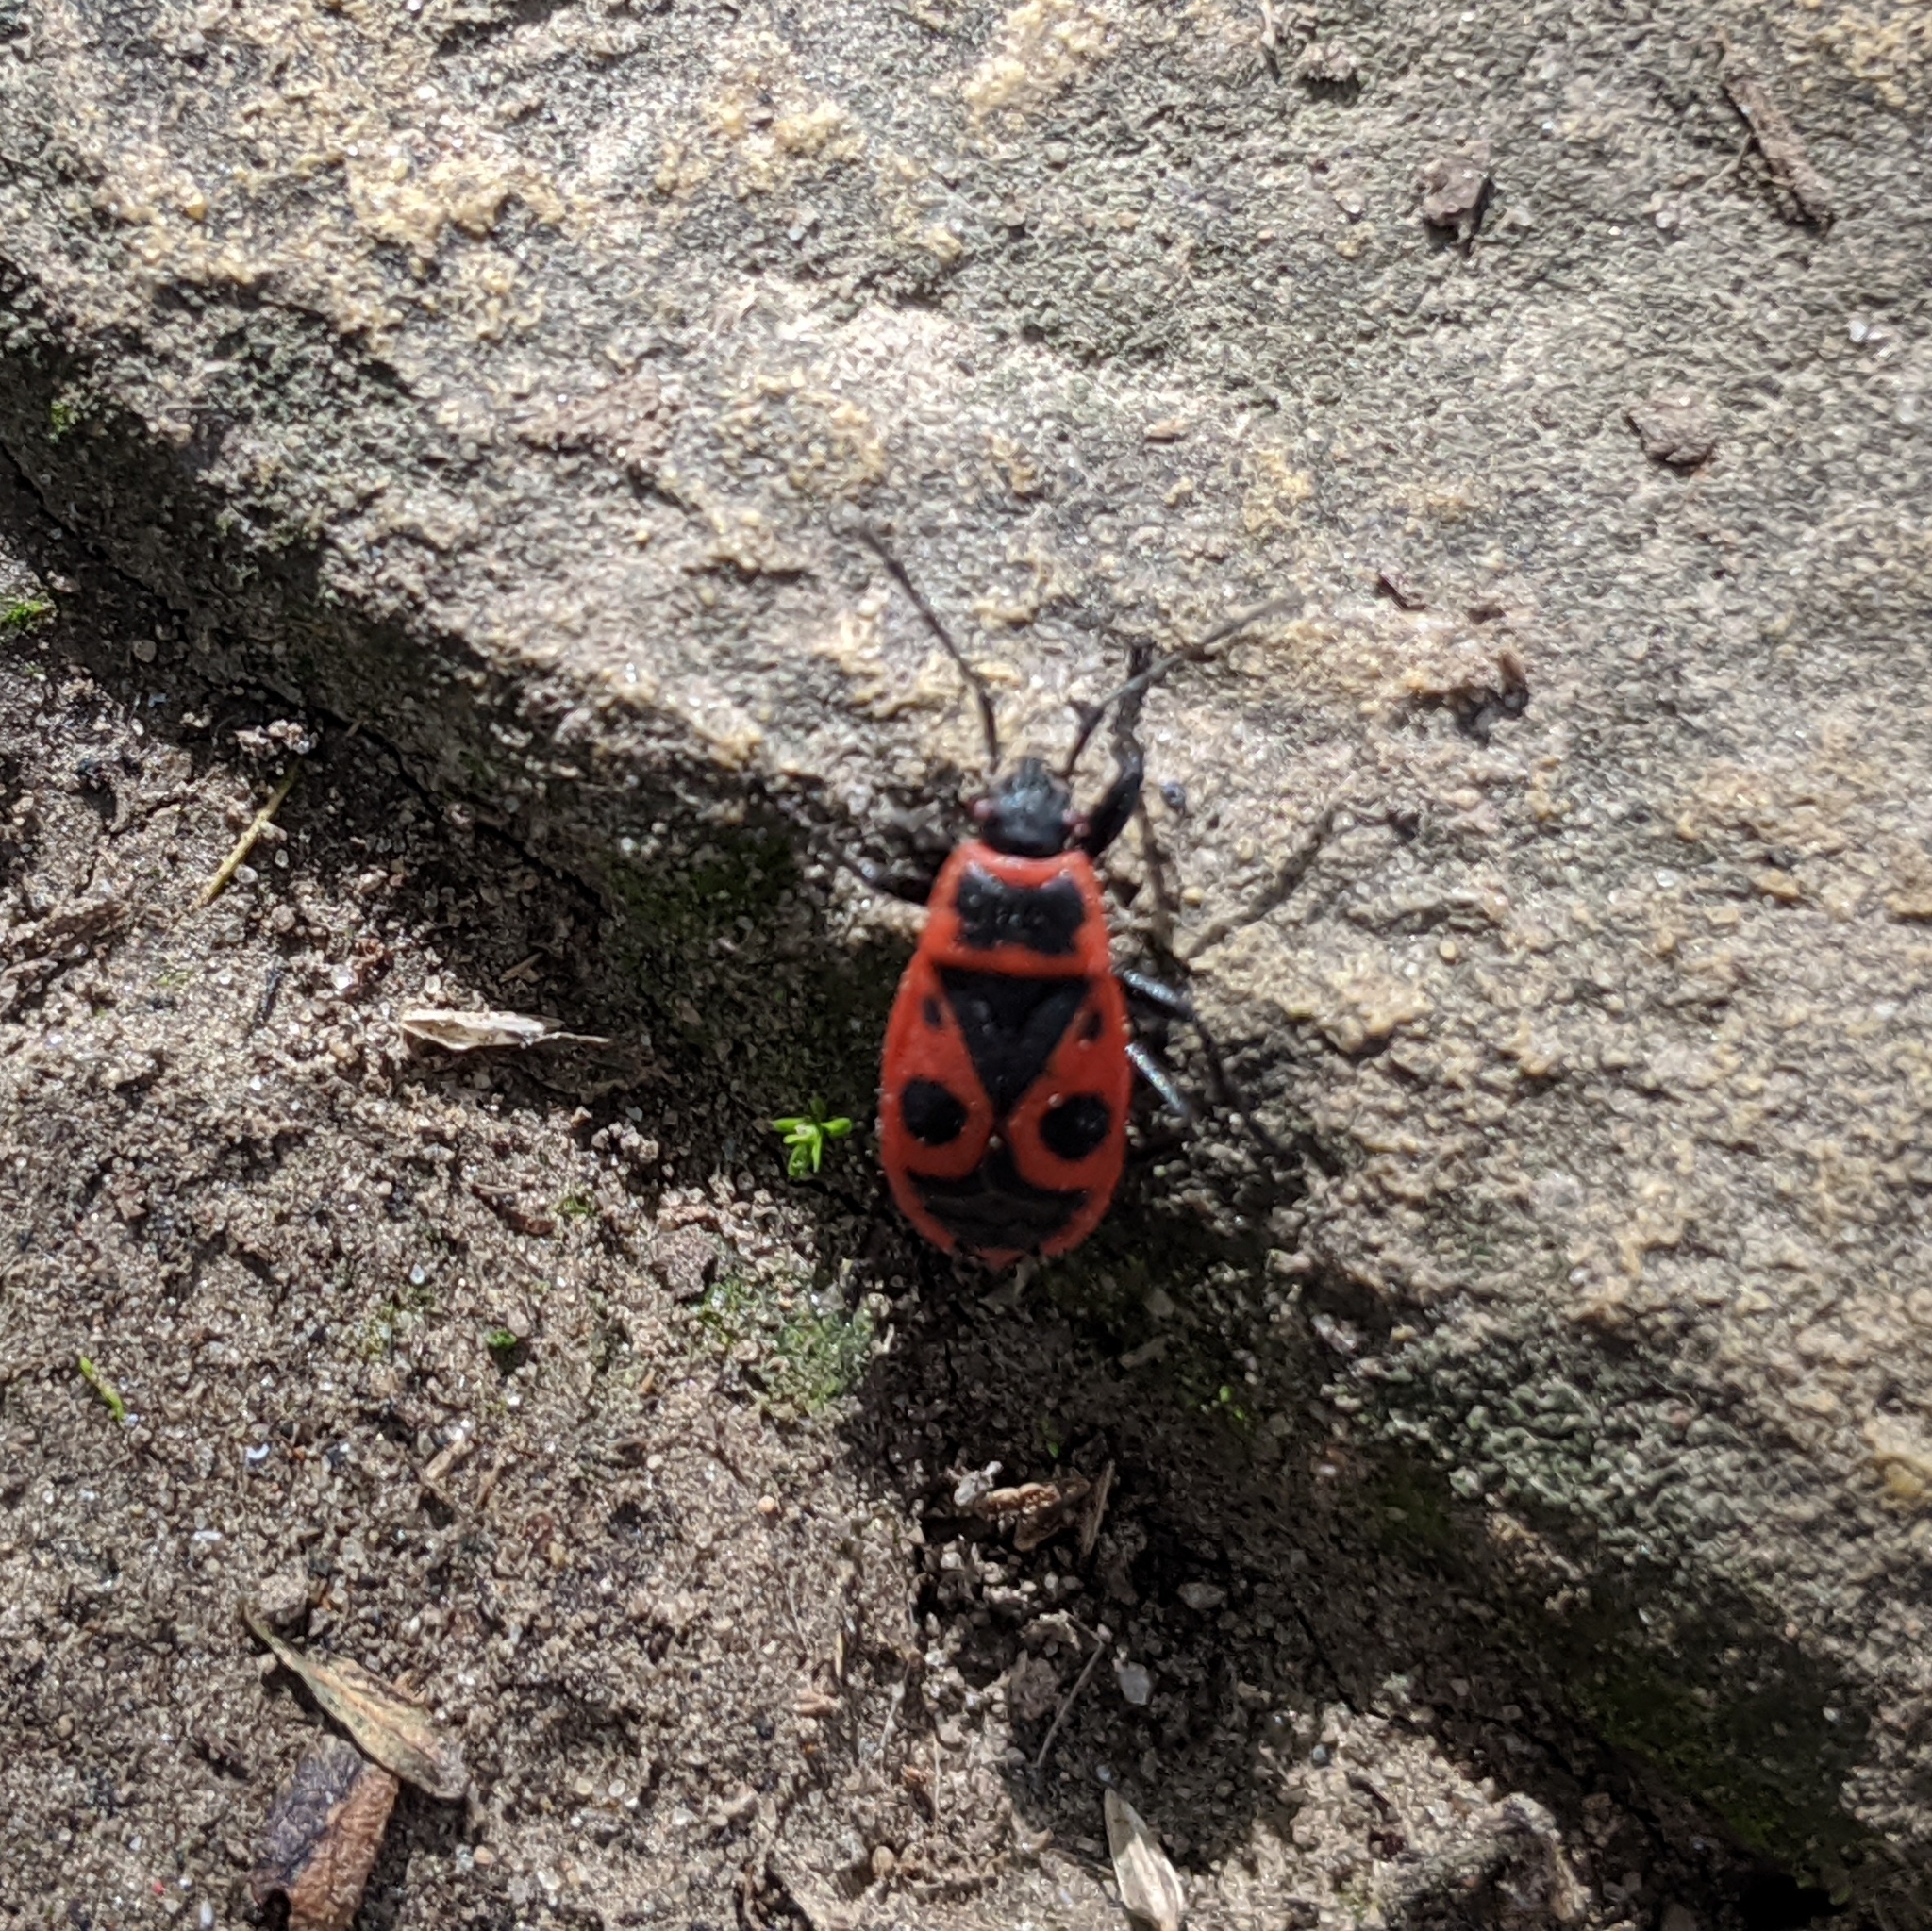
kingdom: Animalia
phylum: Arthropoda
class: Insecta
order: Hemiptera
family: Pyrrhocoridae
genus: Pyrrhocoris
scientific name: Pyrrhocoris apterus
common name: Firebug
